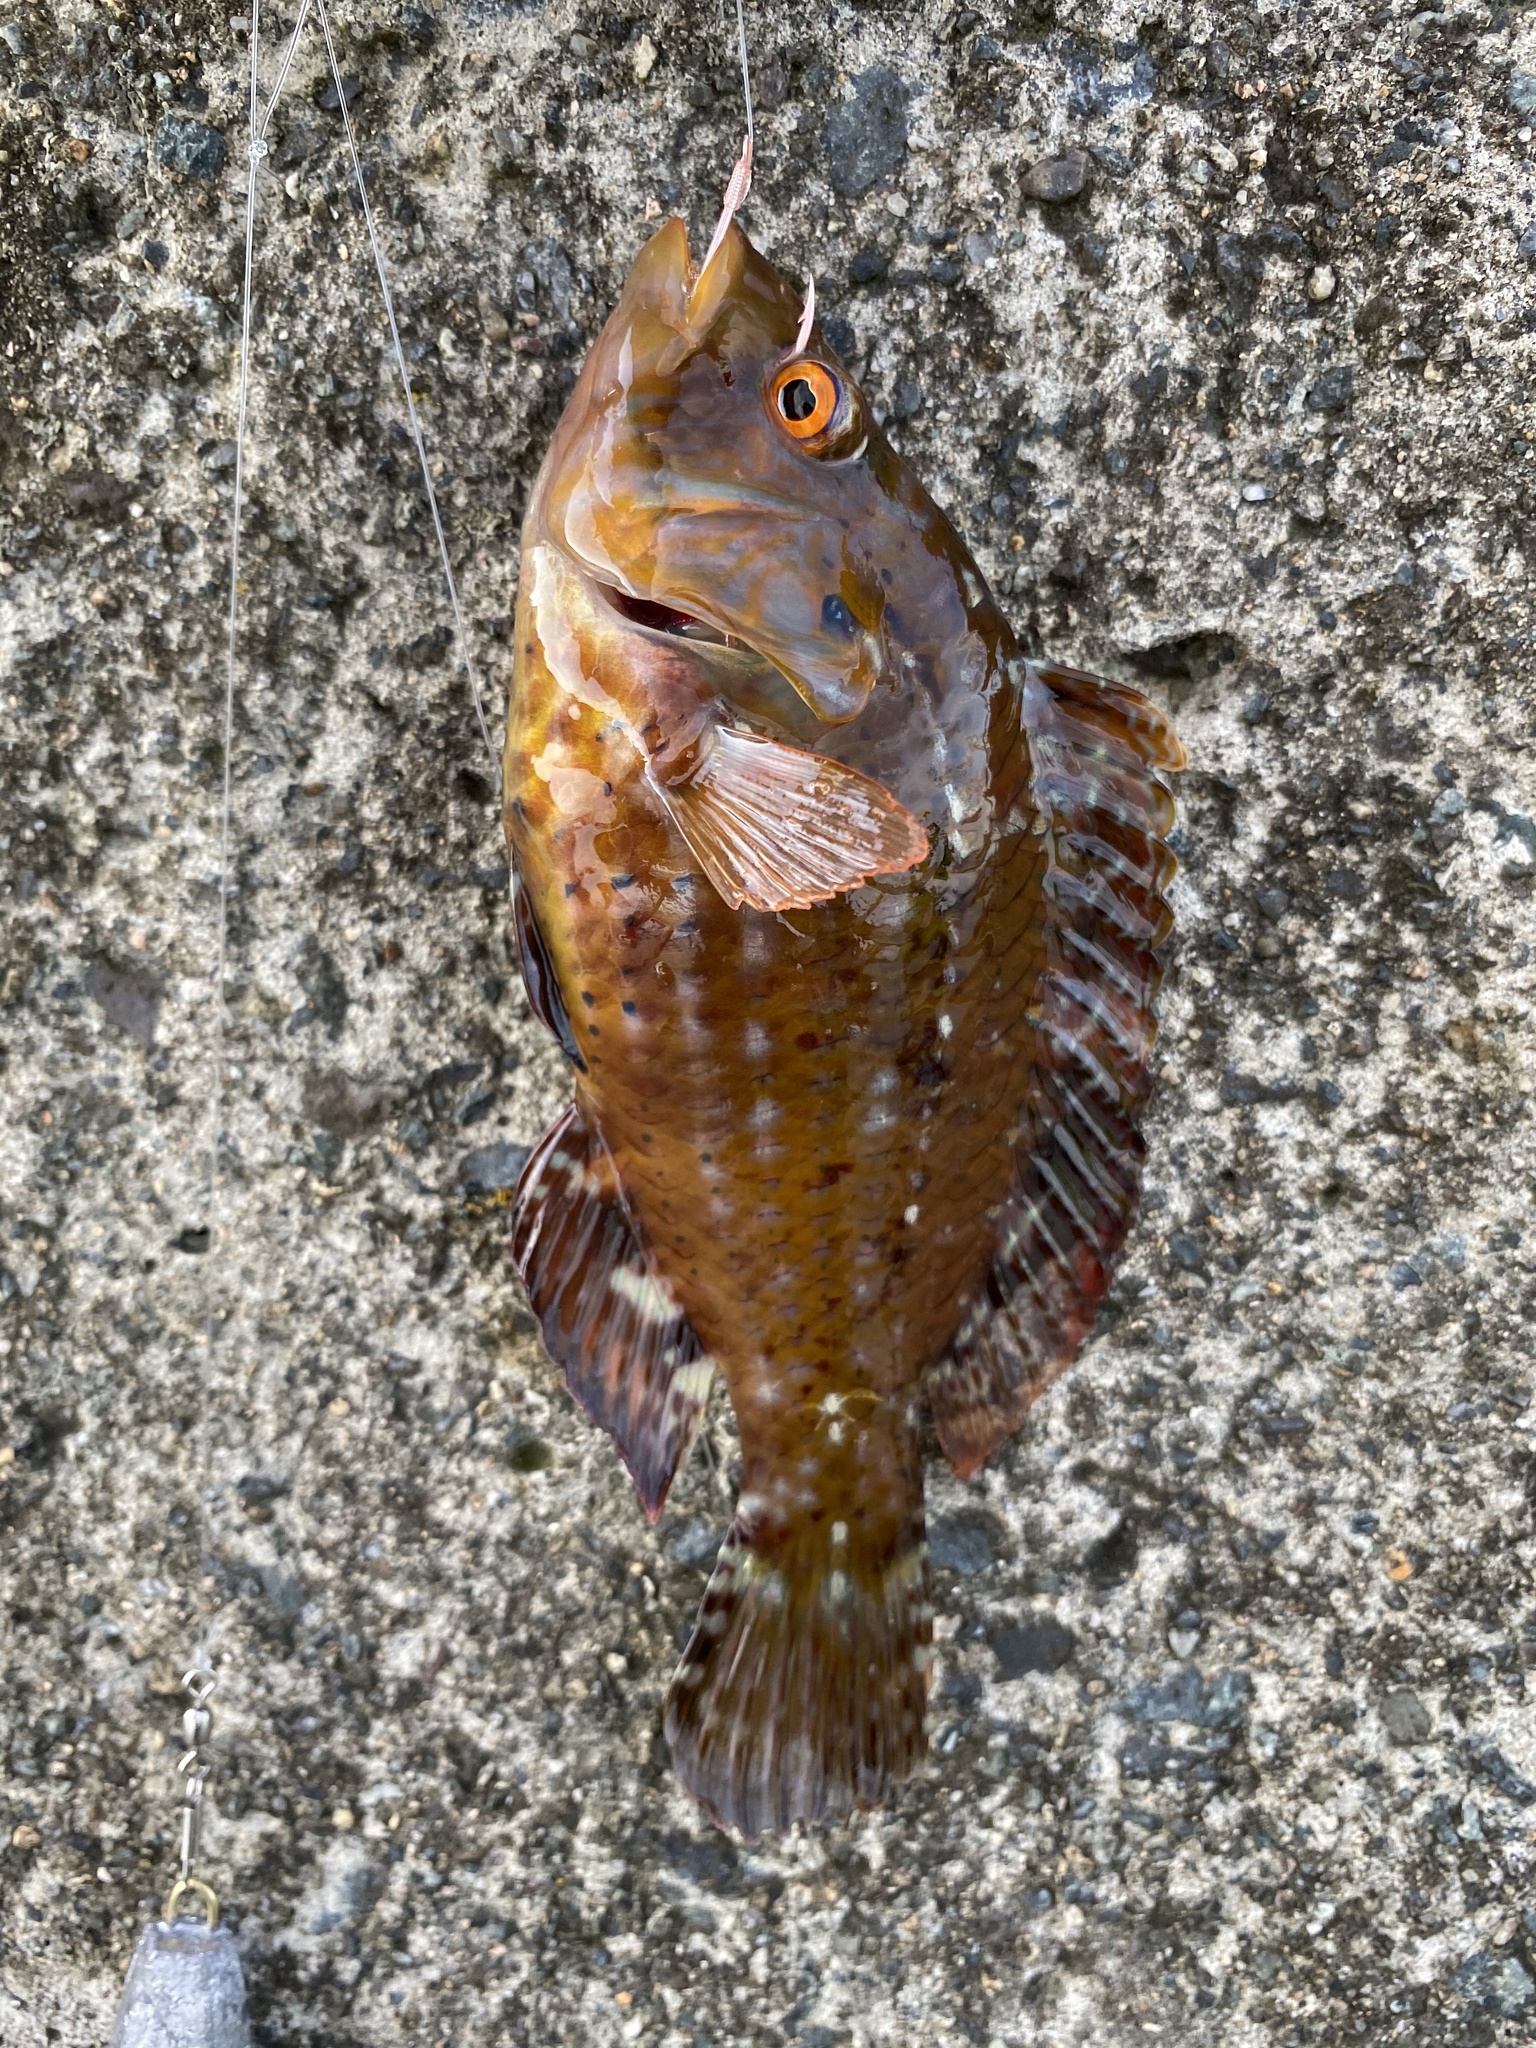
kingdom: Animalia
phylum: Chordata
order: Perciformes
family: Labridae
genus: Pteragogus
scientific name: Pteragogus aurigarius
